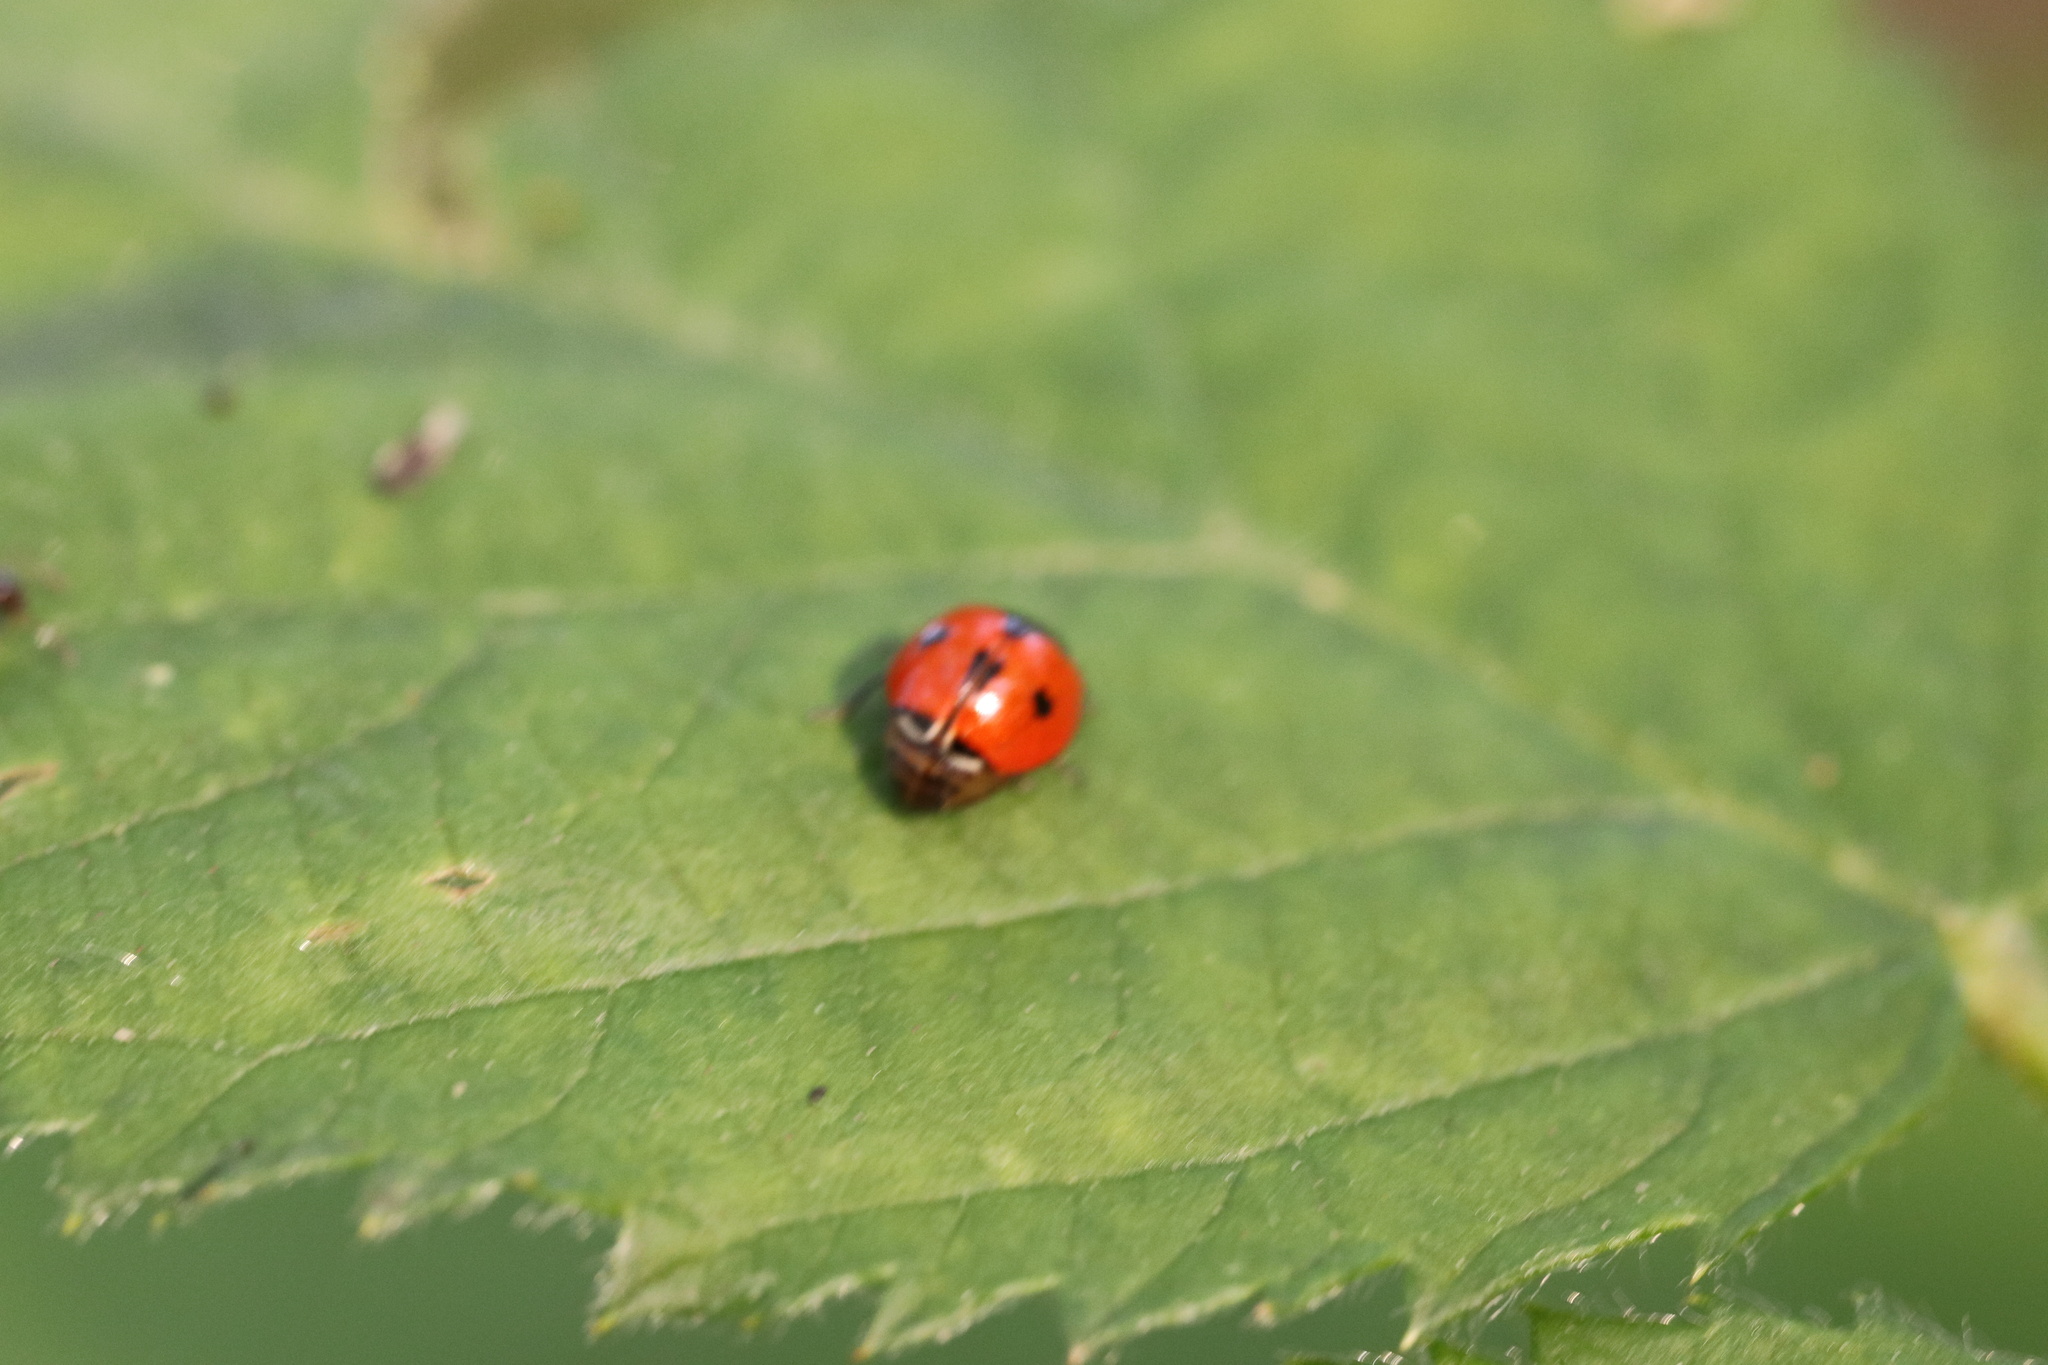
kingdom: Animalia
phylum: Arthropoda
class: Insecta
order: Coleoptera
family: Coccinellidae
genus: Adalia
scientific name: Adalia deficiens
